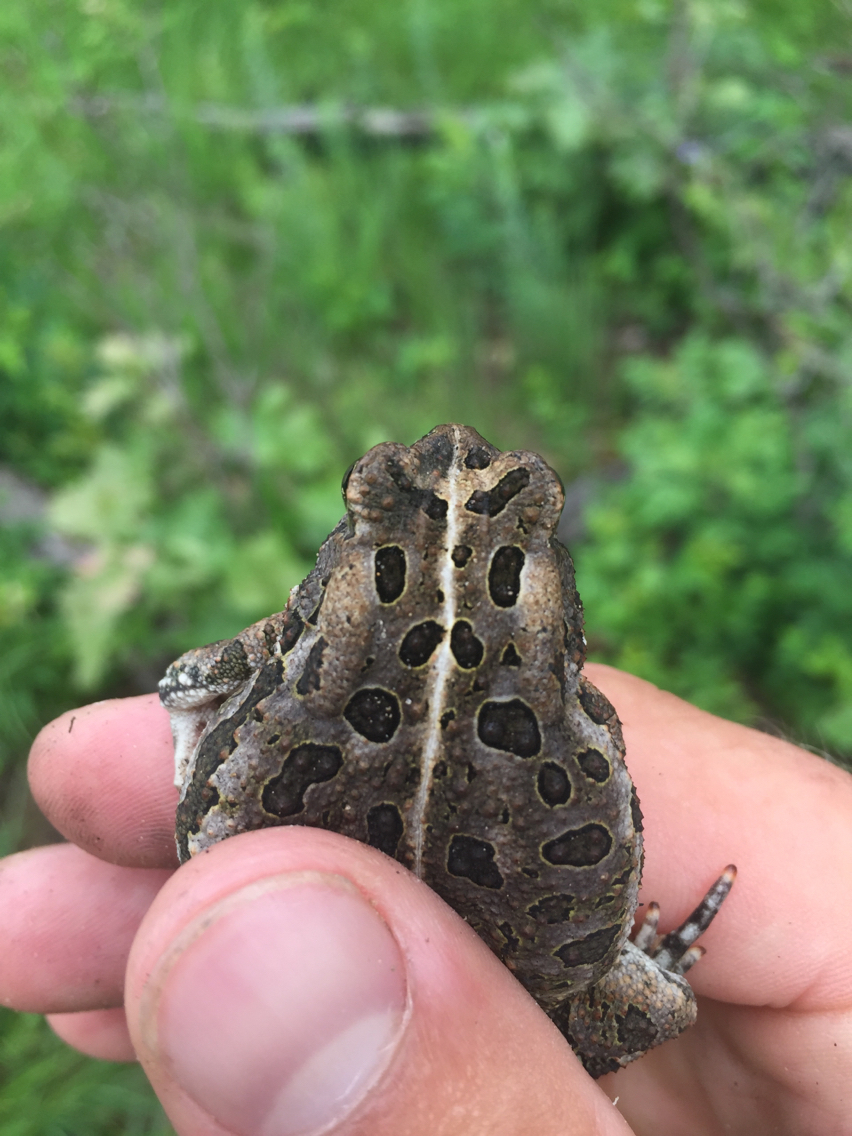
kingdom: Animalia
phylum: Chordata
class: Amphibia
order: Anura
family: Bufonidae
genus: Anaxyrus
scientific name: Anaxyrus fowleri
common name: Fowler's toad
